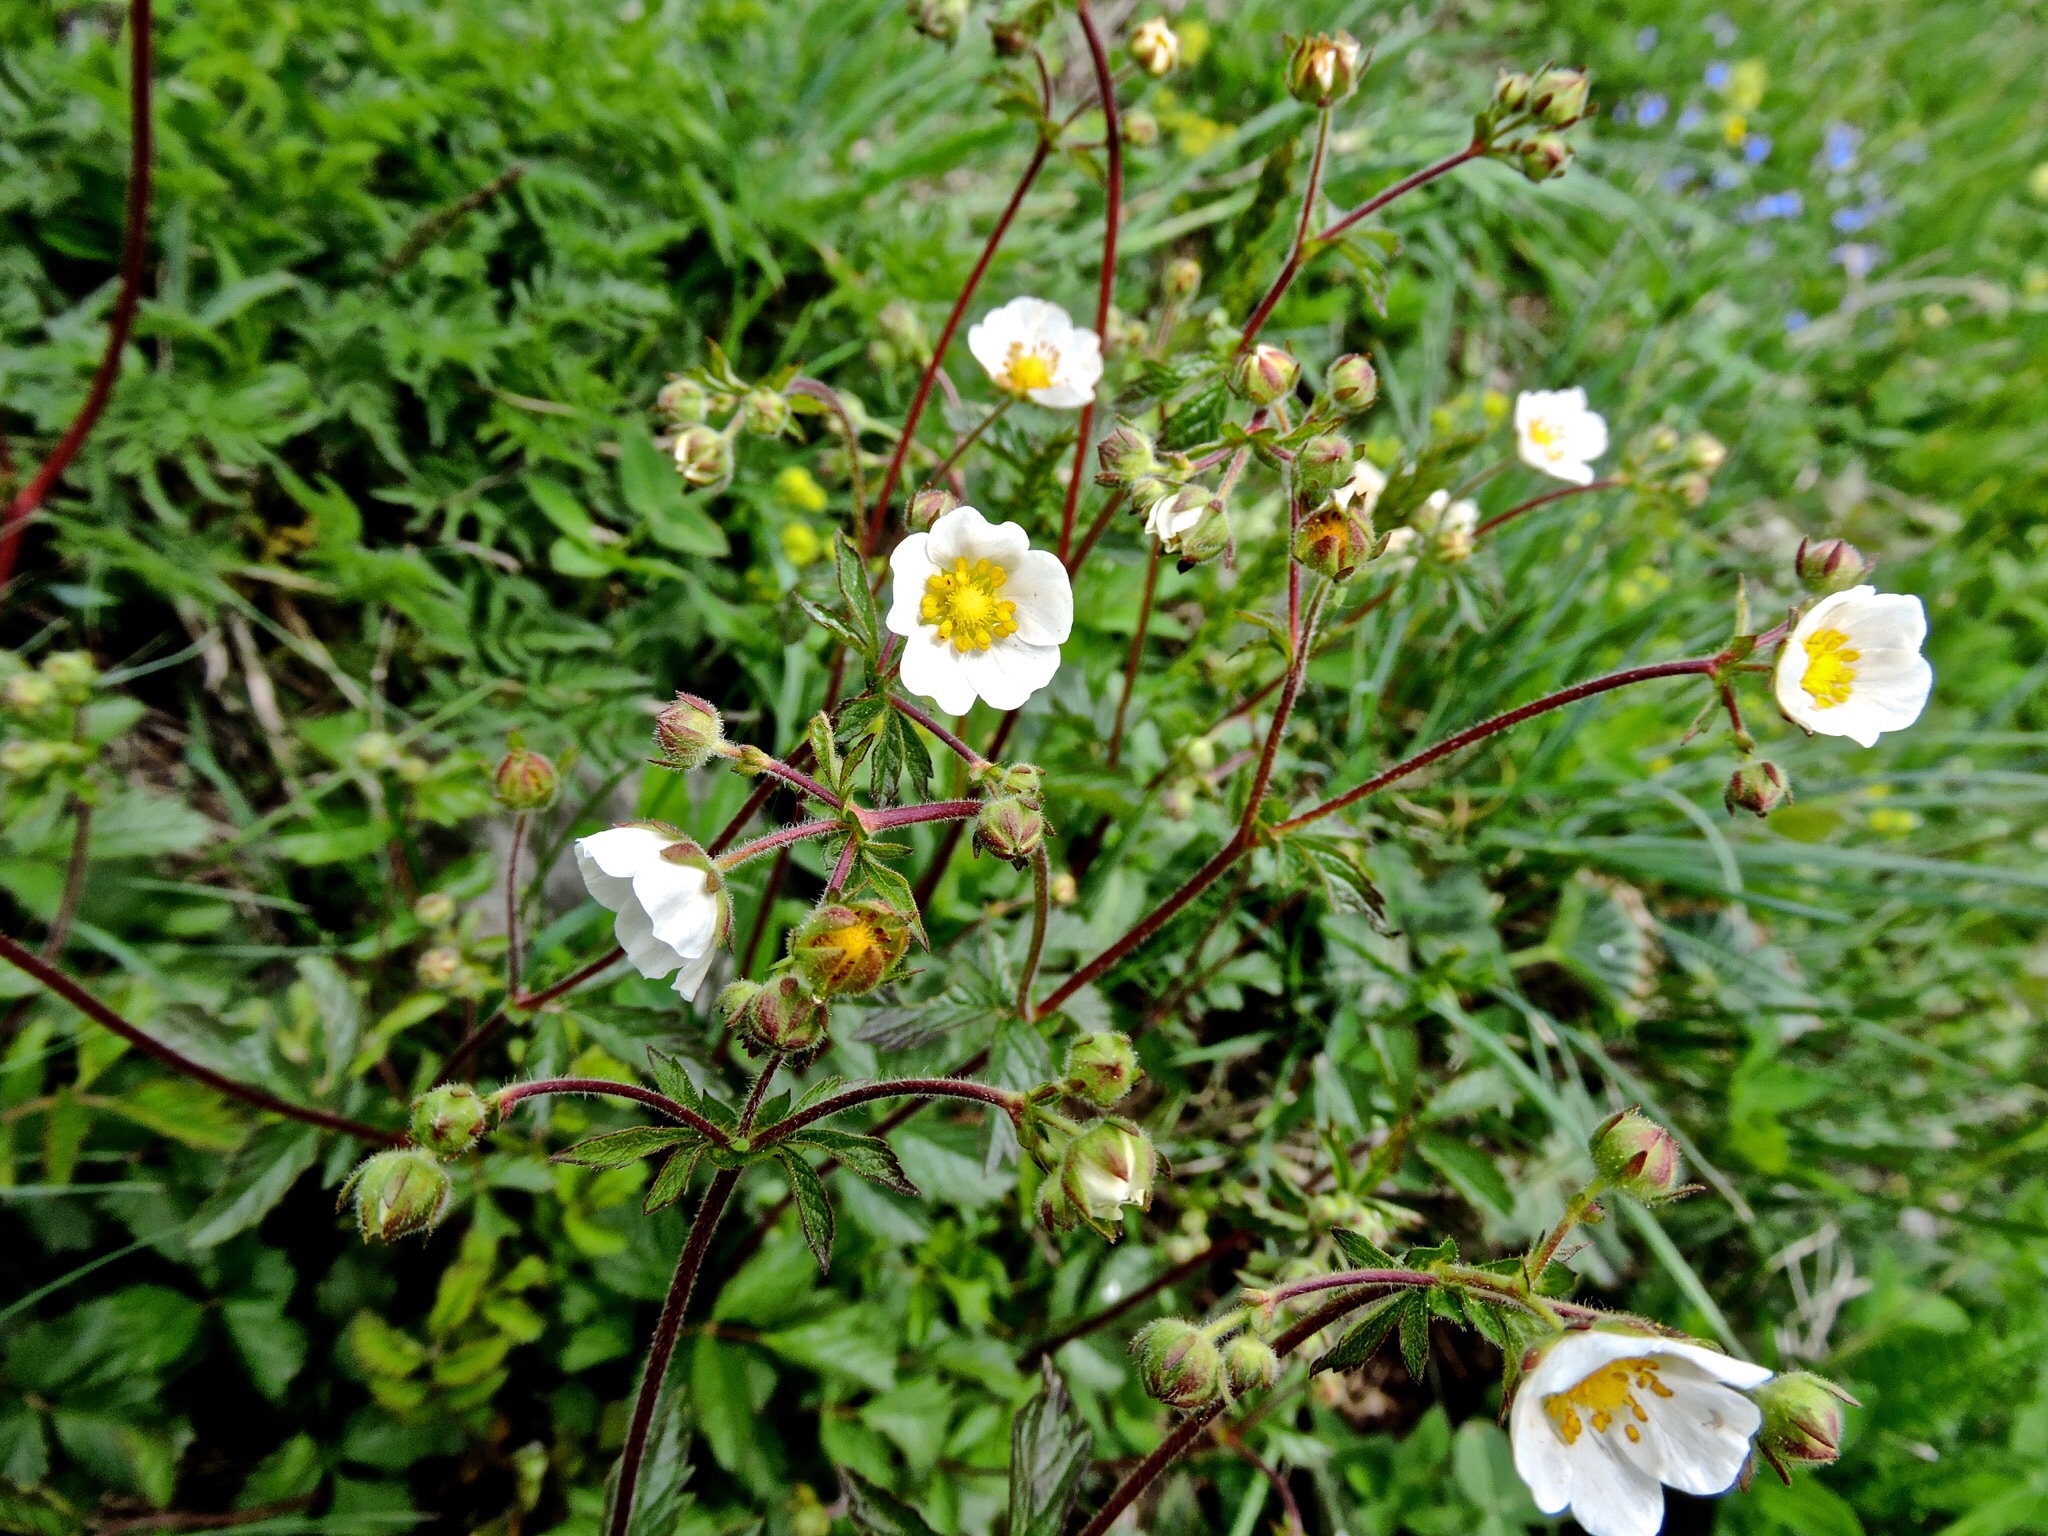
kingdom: Plantae
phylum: Tracheophyta
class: Magnoliopsida
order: Rosales
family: Rosaceae
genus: Drymocallis
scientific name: Drymocallis rupestris
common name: Rock cinquefoil
